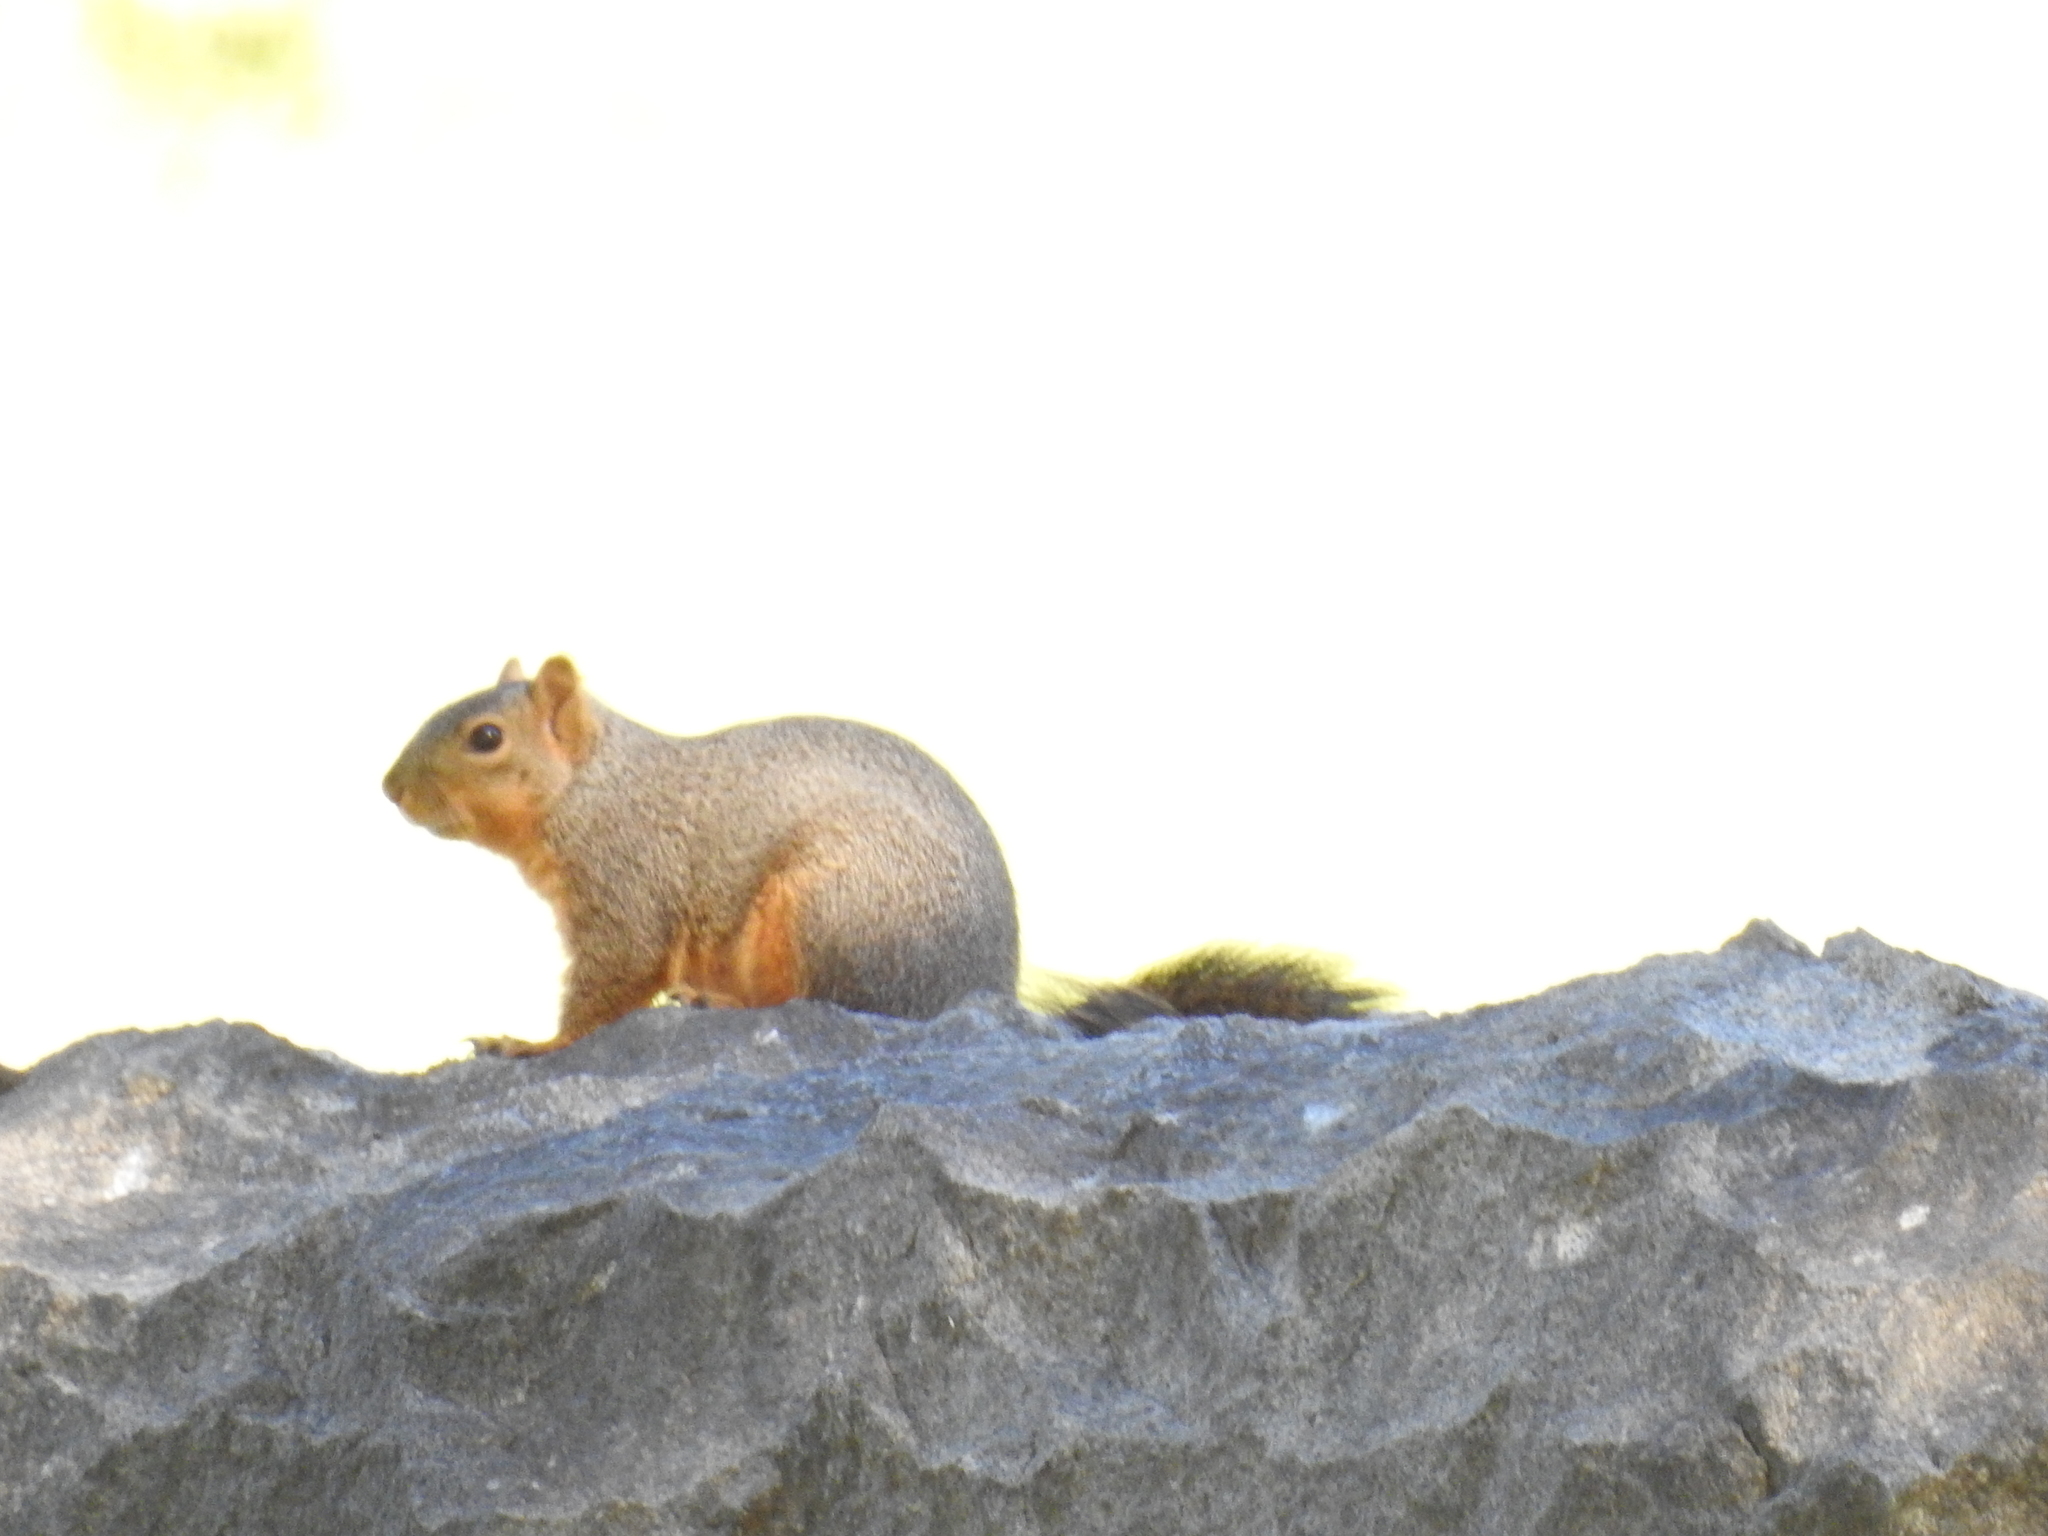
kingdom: Animalia
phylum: Chordata
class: Mammalia
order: Rodentia
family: Sciuridae
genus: Sciurus
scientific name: Sciurus niger
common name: Fox squirrel
